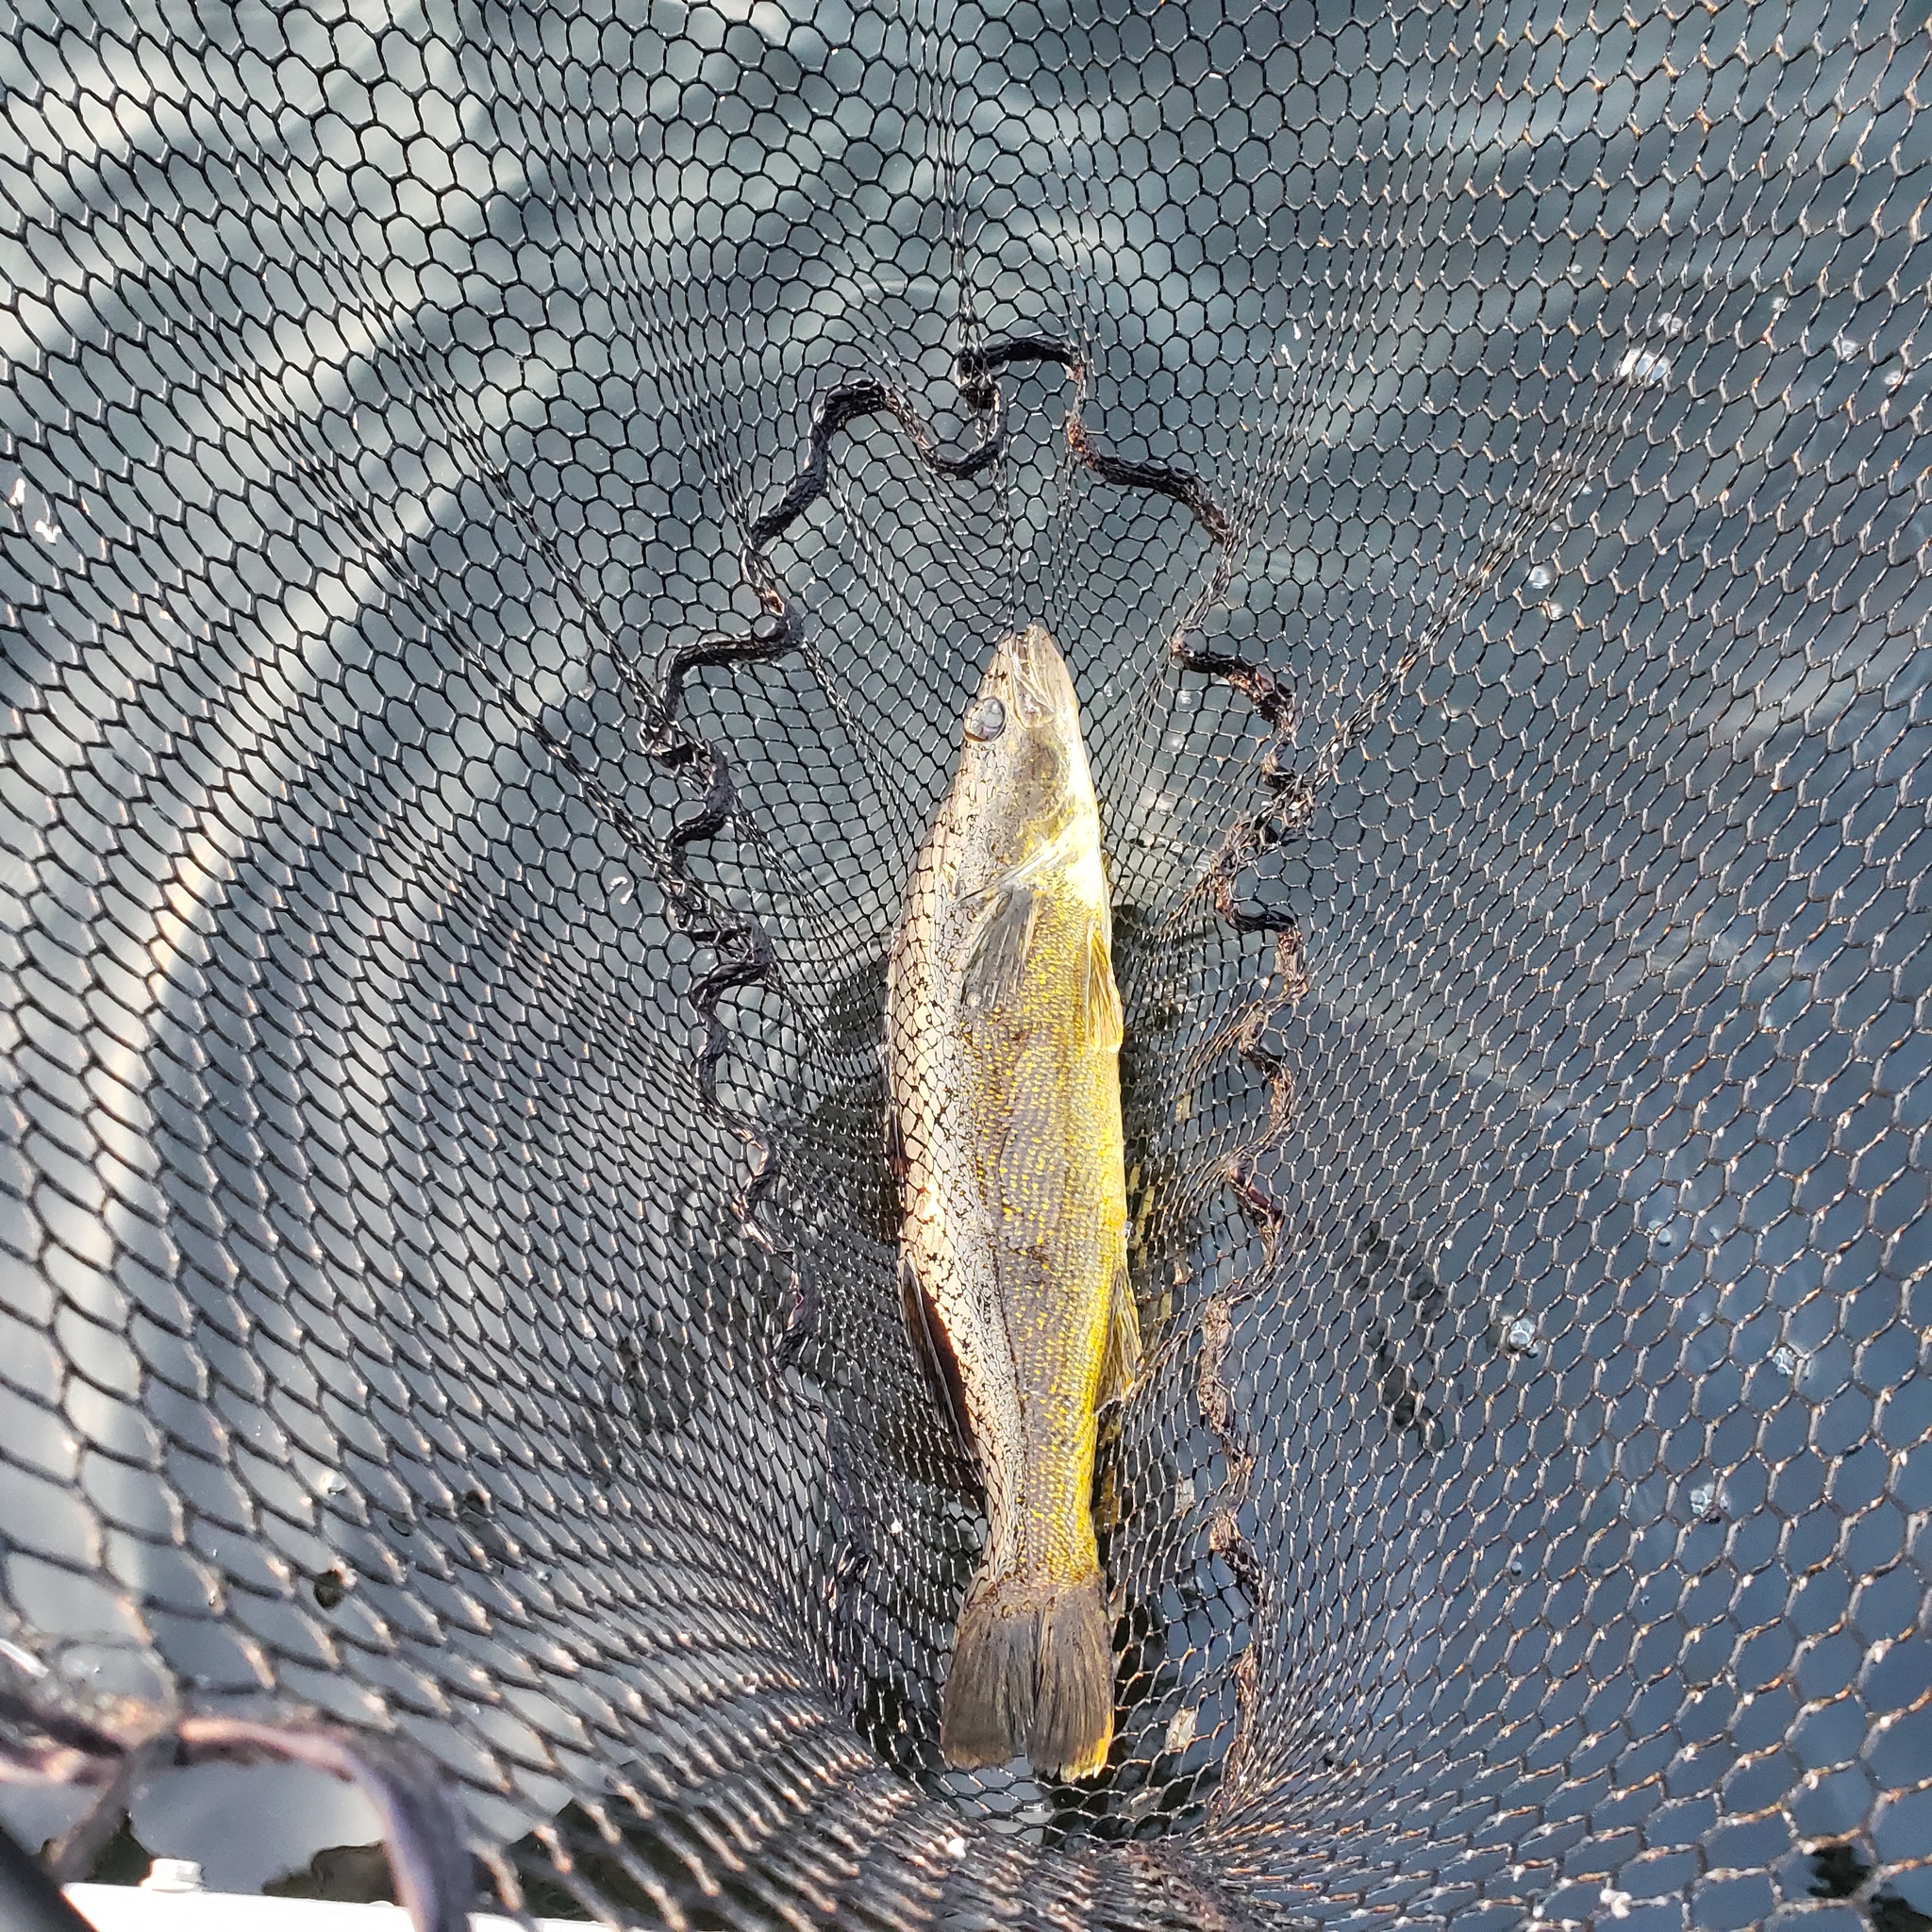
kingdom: Animalia
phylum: Chordata
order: Perciformes
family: Percidae
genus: Sander
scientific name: Sander vitreus
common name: Walleye
